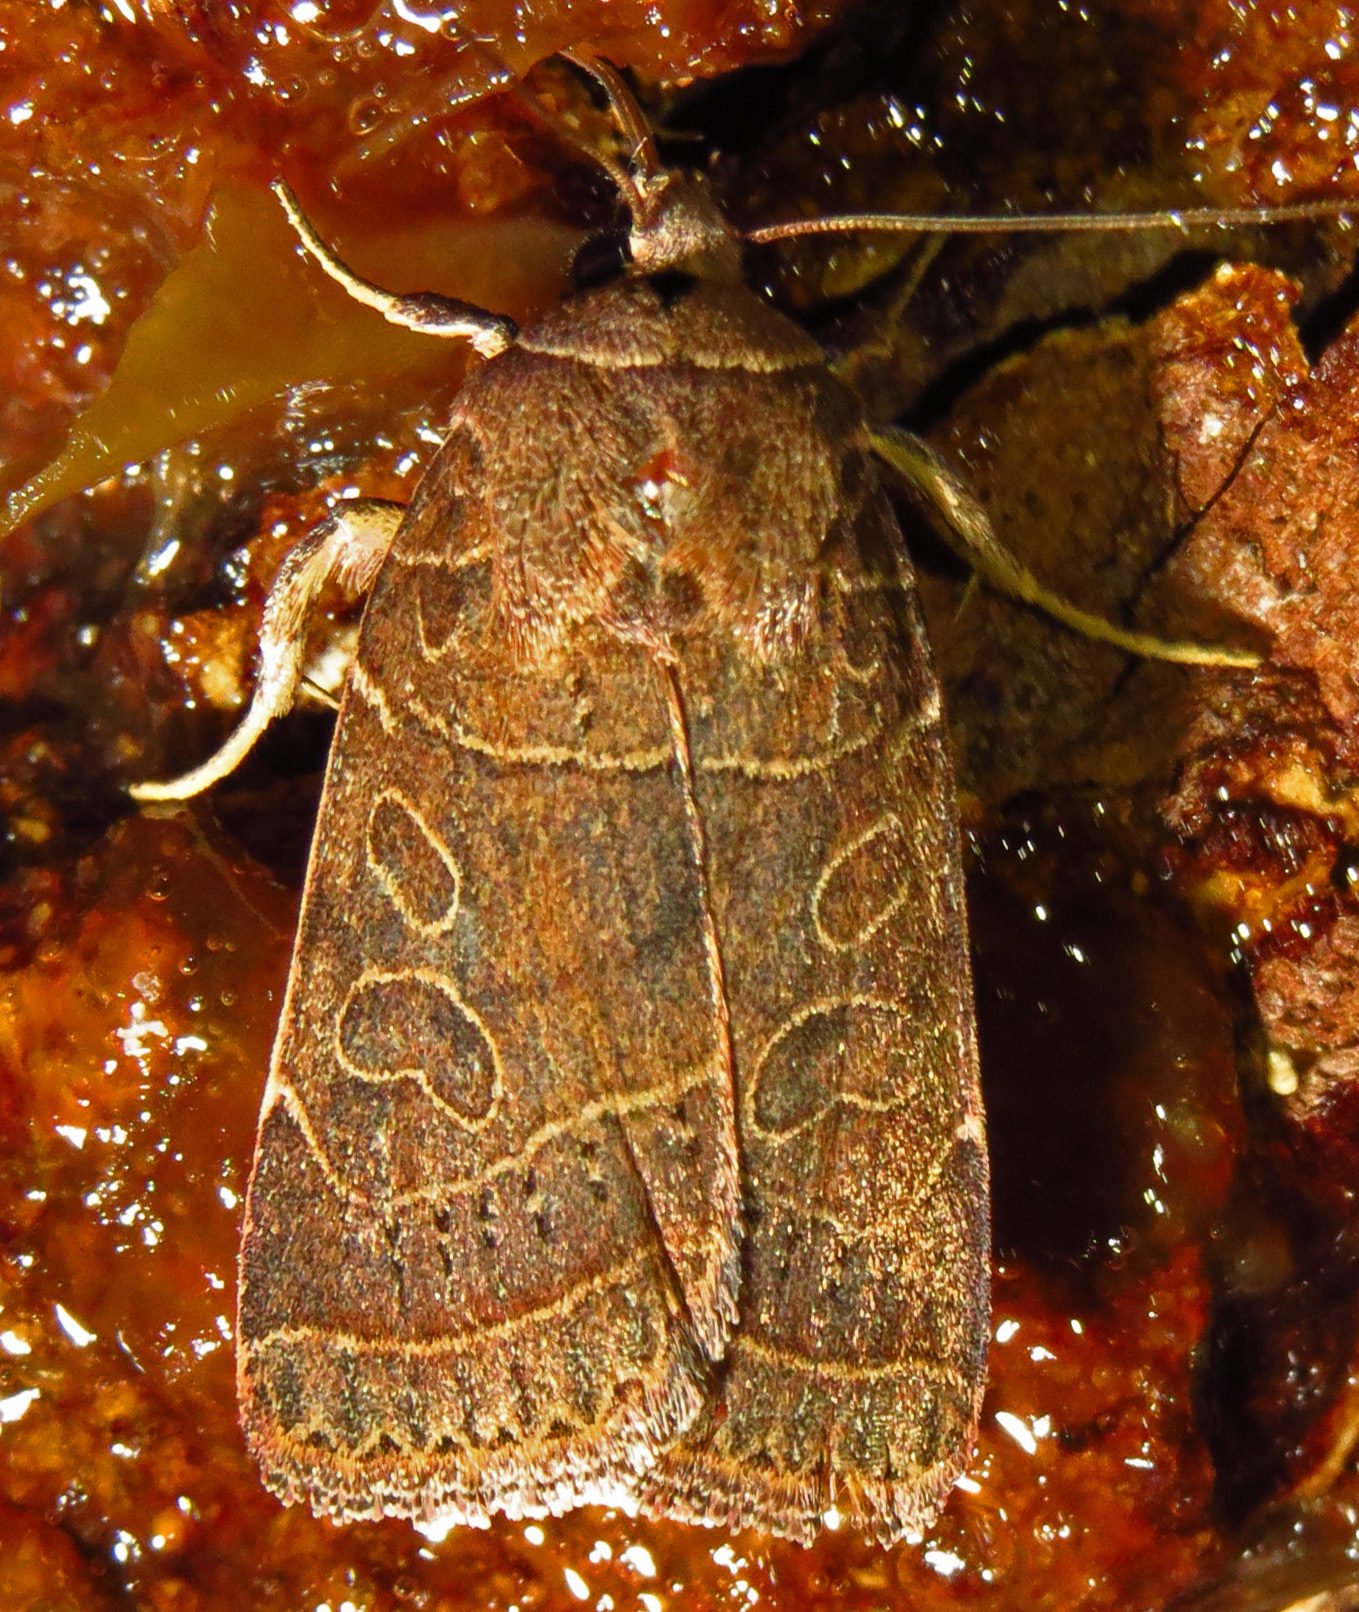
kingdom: Animalia
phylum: Arthropoda
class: Insecta
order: Lepidoptera
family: Noctuidae
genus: Orthodes
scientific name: Orthodes majuscula
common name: Rustic quaker
